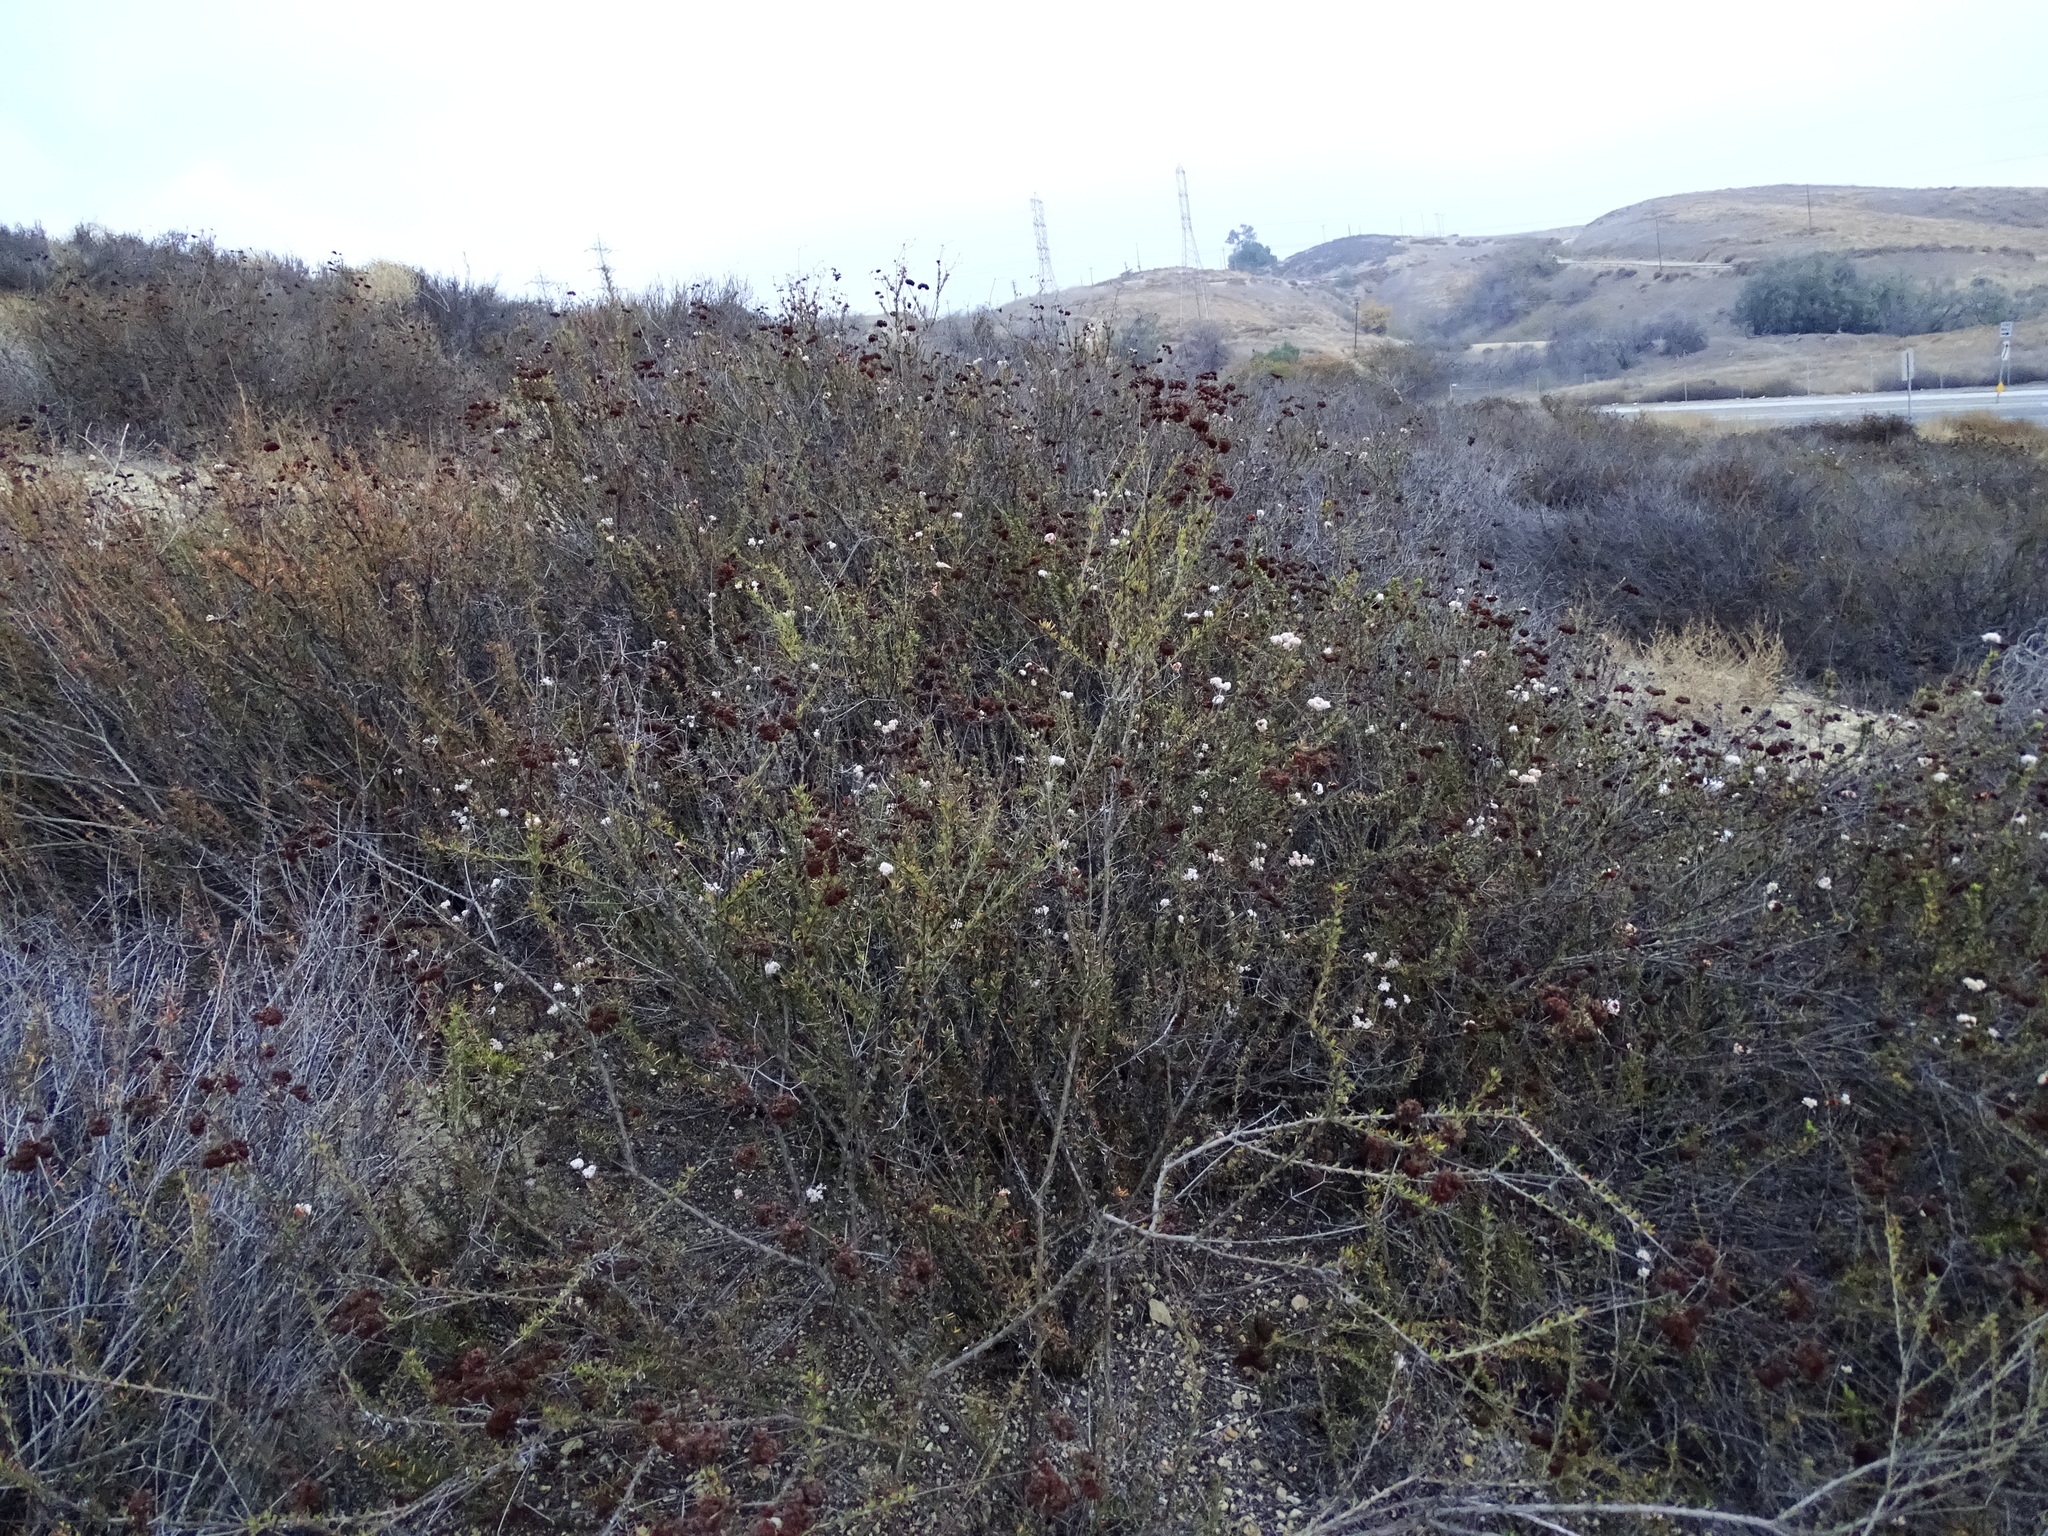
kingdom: Plantae
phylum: Tracheophyta
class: Magnoliopsida
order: Caryophyllales
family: Polygonaceae
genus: Eriogonum
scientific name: Eriogonum fasciculatum
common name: California wild buckwheat
